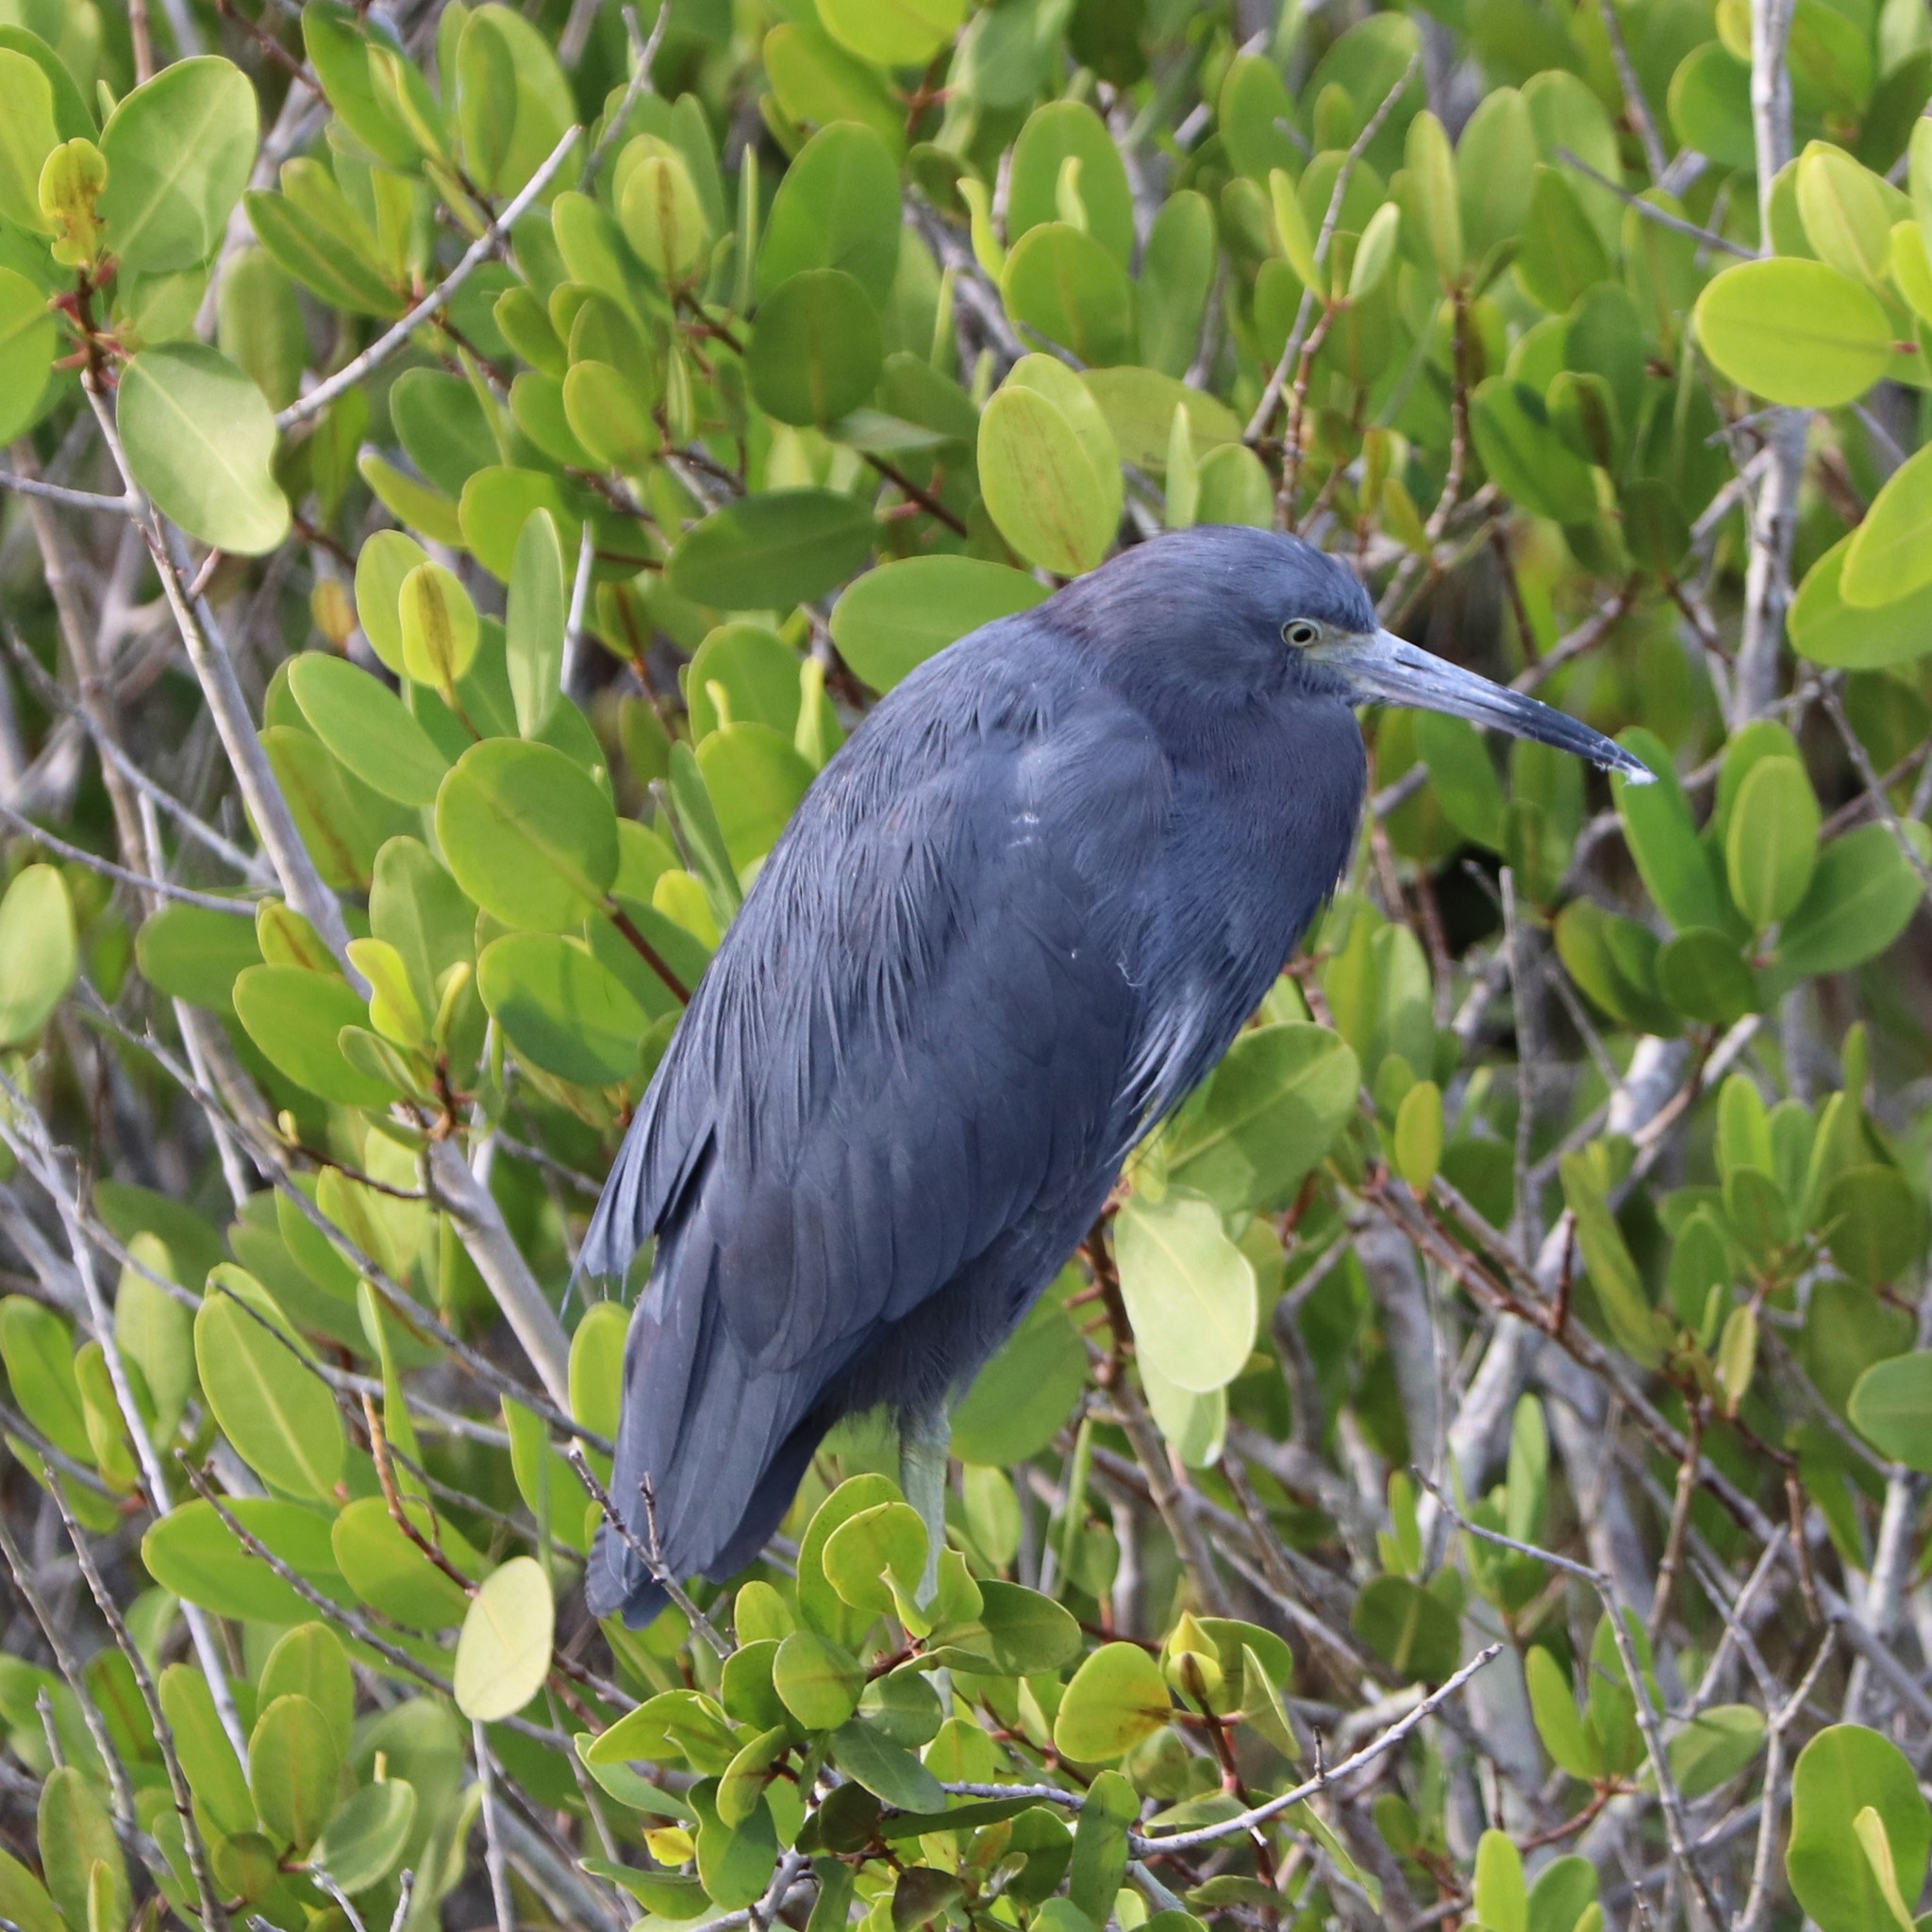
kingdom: Animalia
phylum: Chordata
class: Aves
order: Pelecaniformes
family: Ardeidae
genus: Egretta
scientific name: Egretta caerulea
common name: Little blue heron
